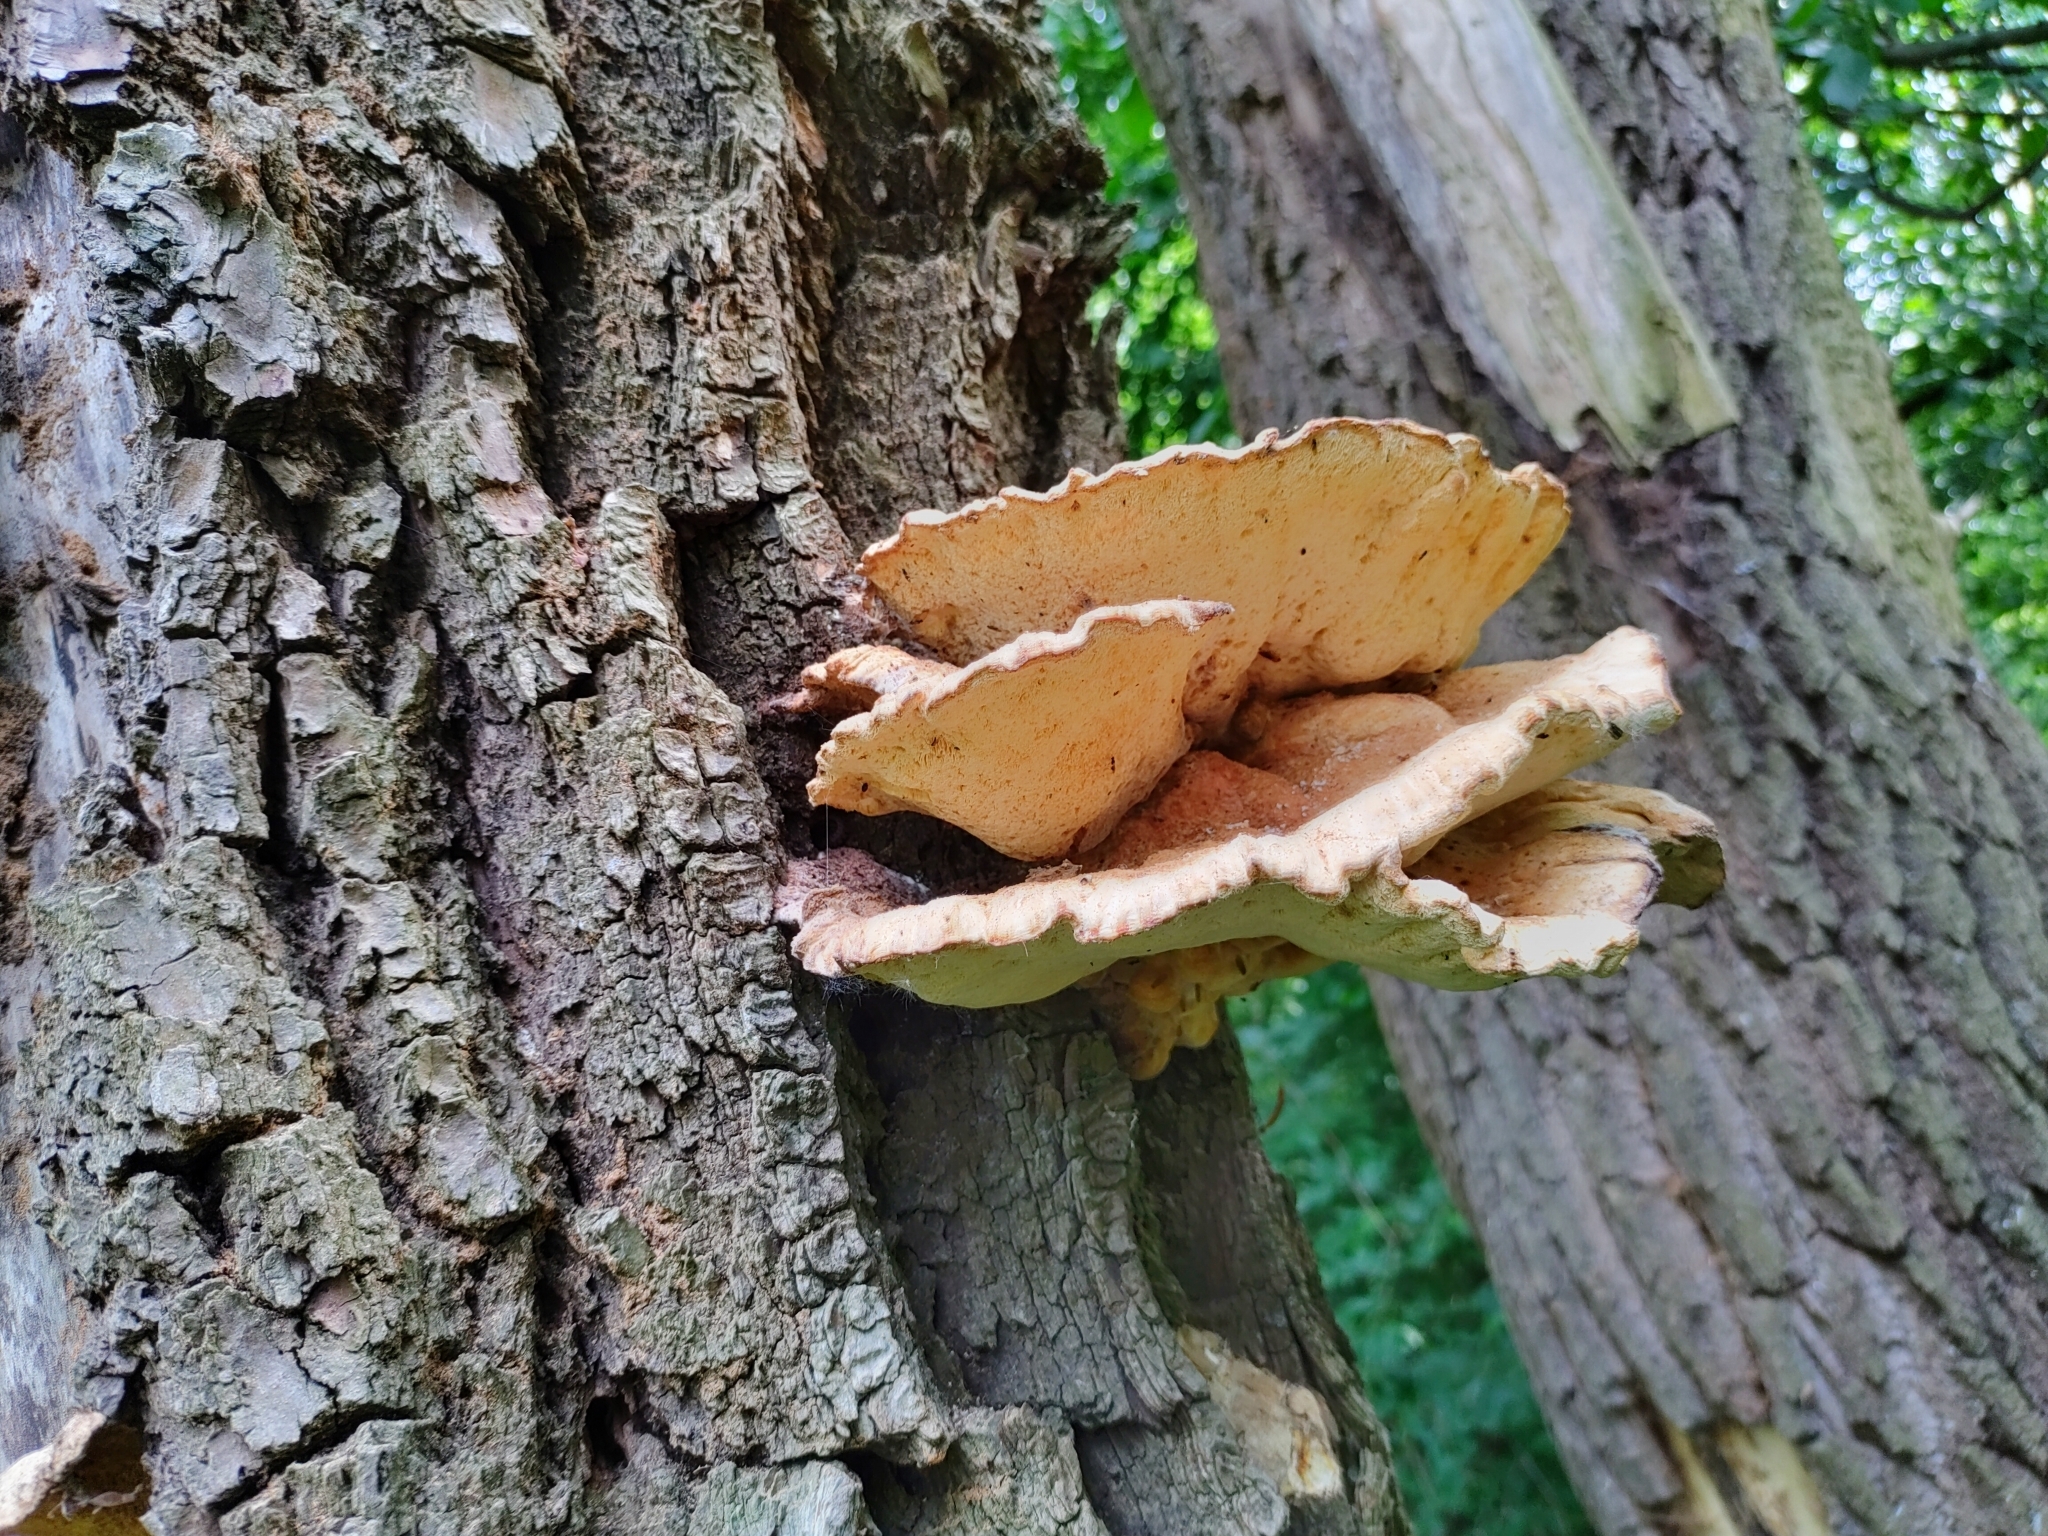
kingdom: Fungi
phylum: Basidiomycota
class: Agaricomycetes
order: Polyporales
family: Laetiporaceae
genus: Laetiporus
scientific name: Laetiporus sulphureus
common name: Chicken of the woods
